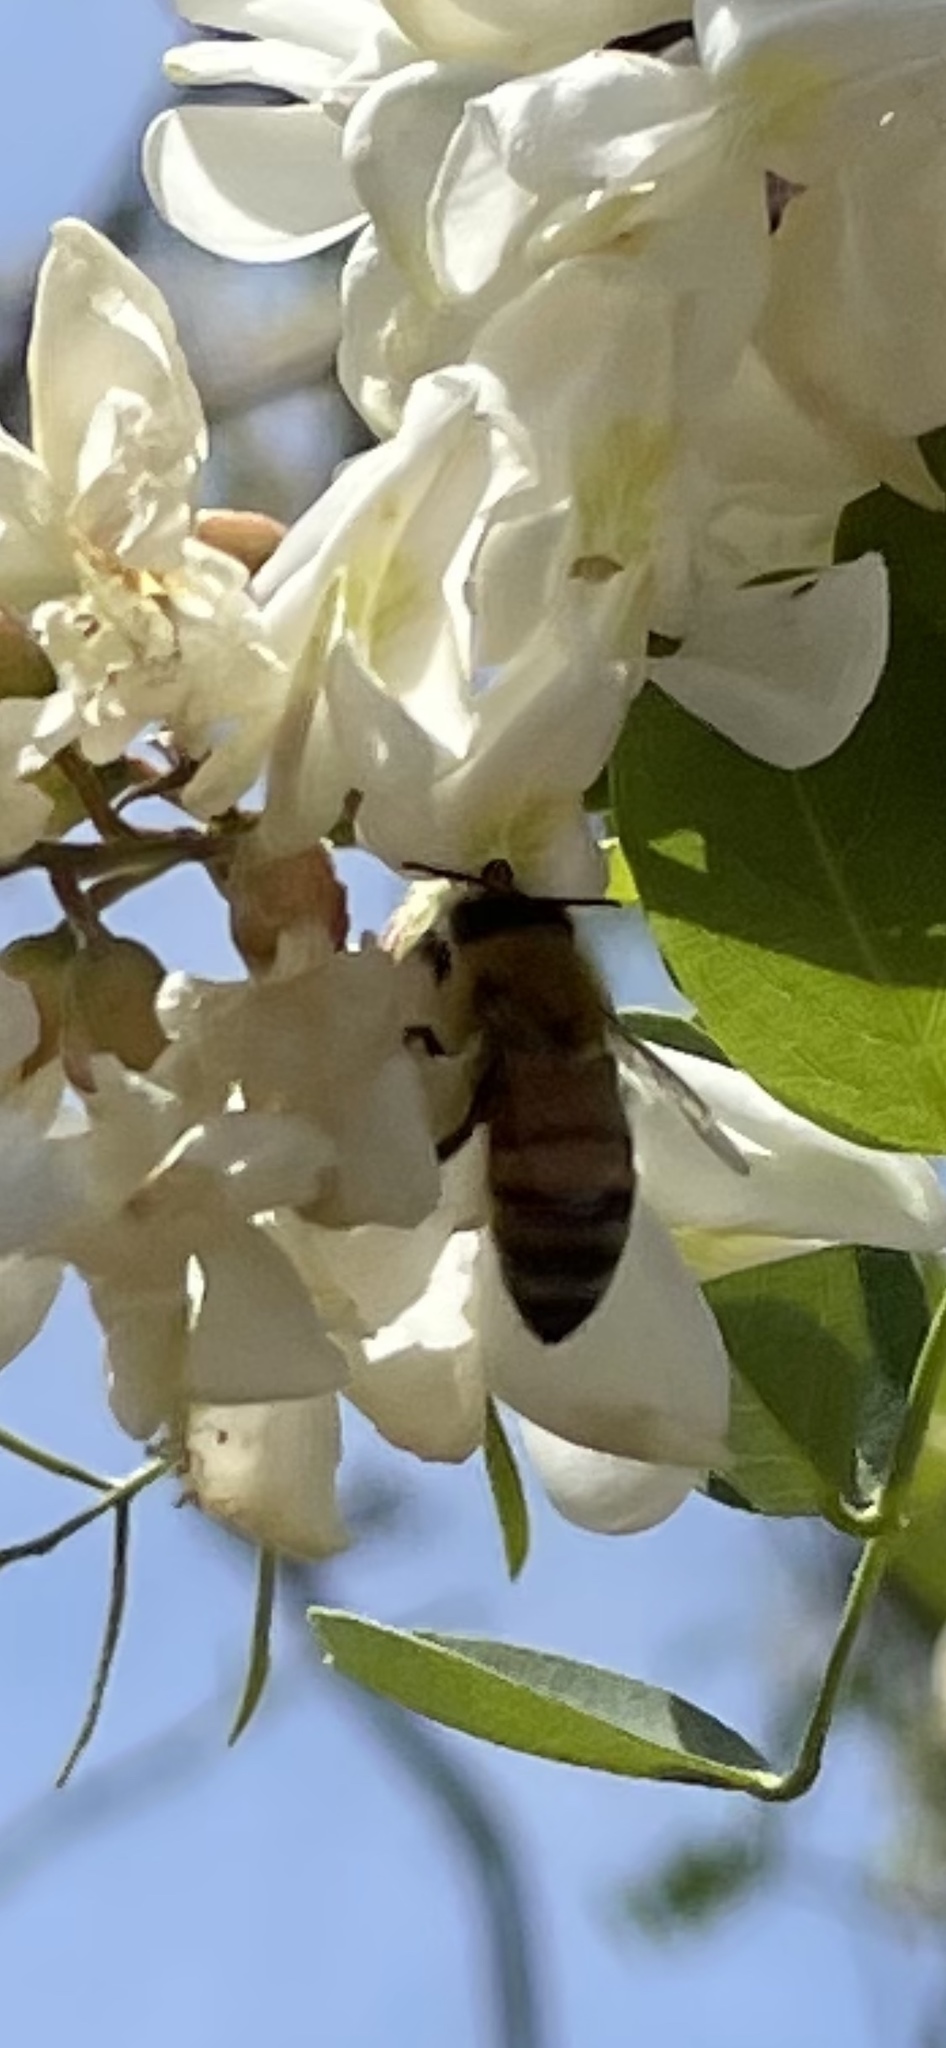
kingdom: Animalia
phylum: Arthropoda
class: Insecta
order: Hymenoptera
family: Apidae
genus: Apis
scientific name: Apis mellifera
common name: Honey bee
